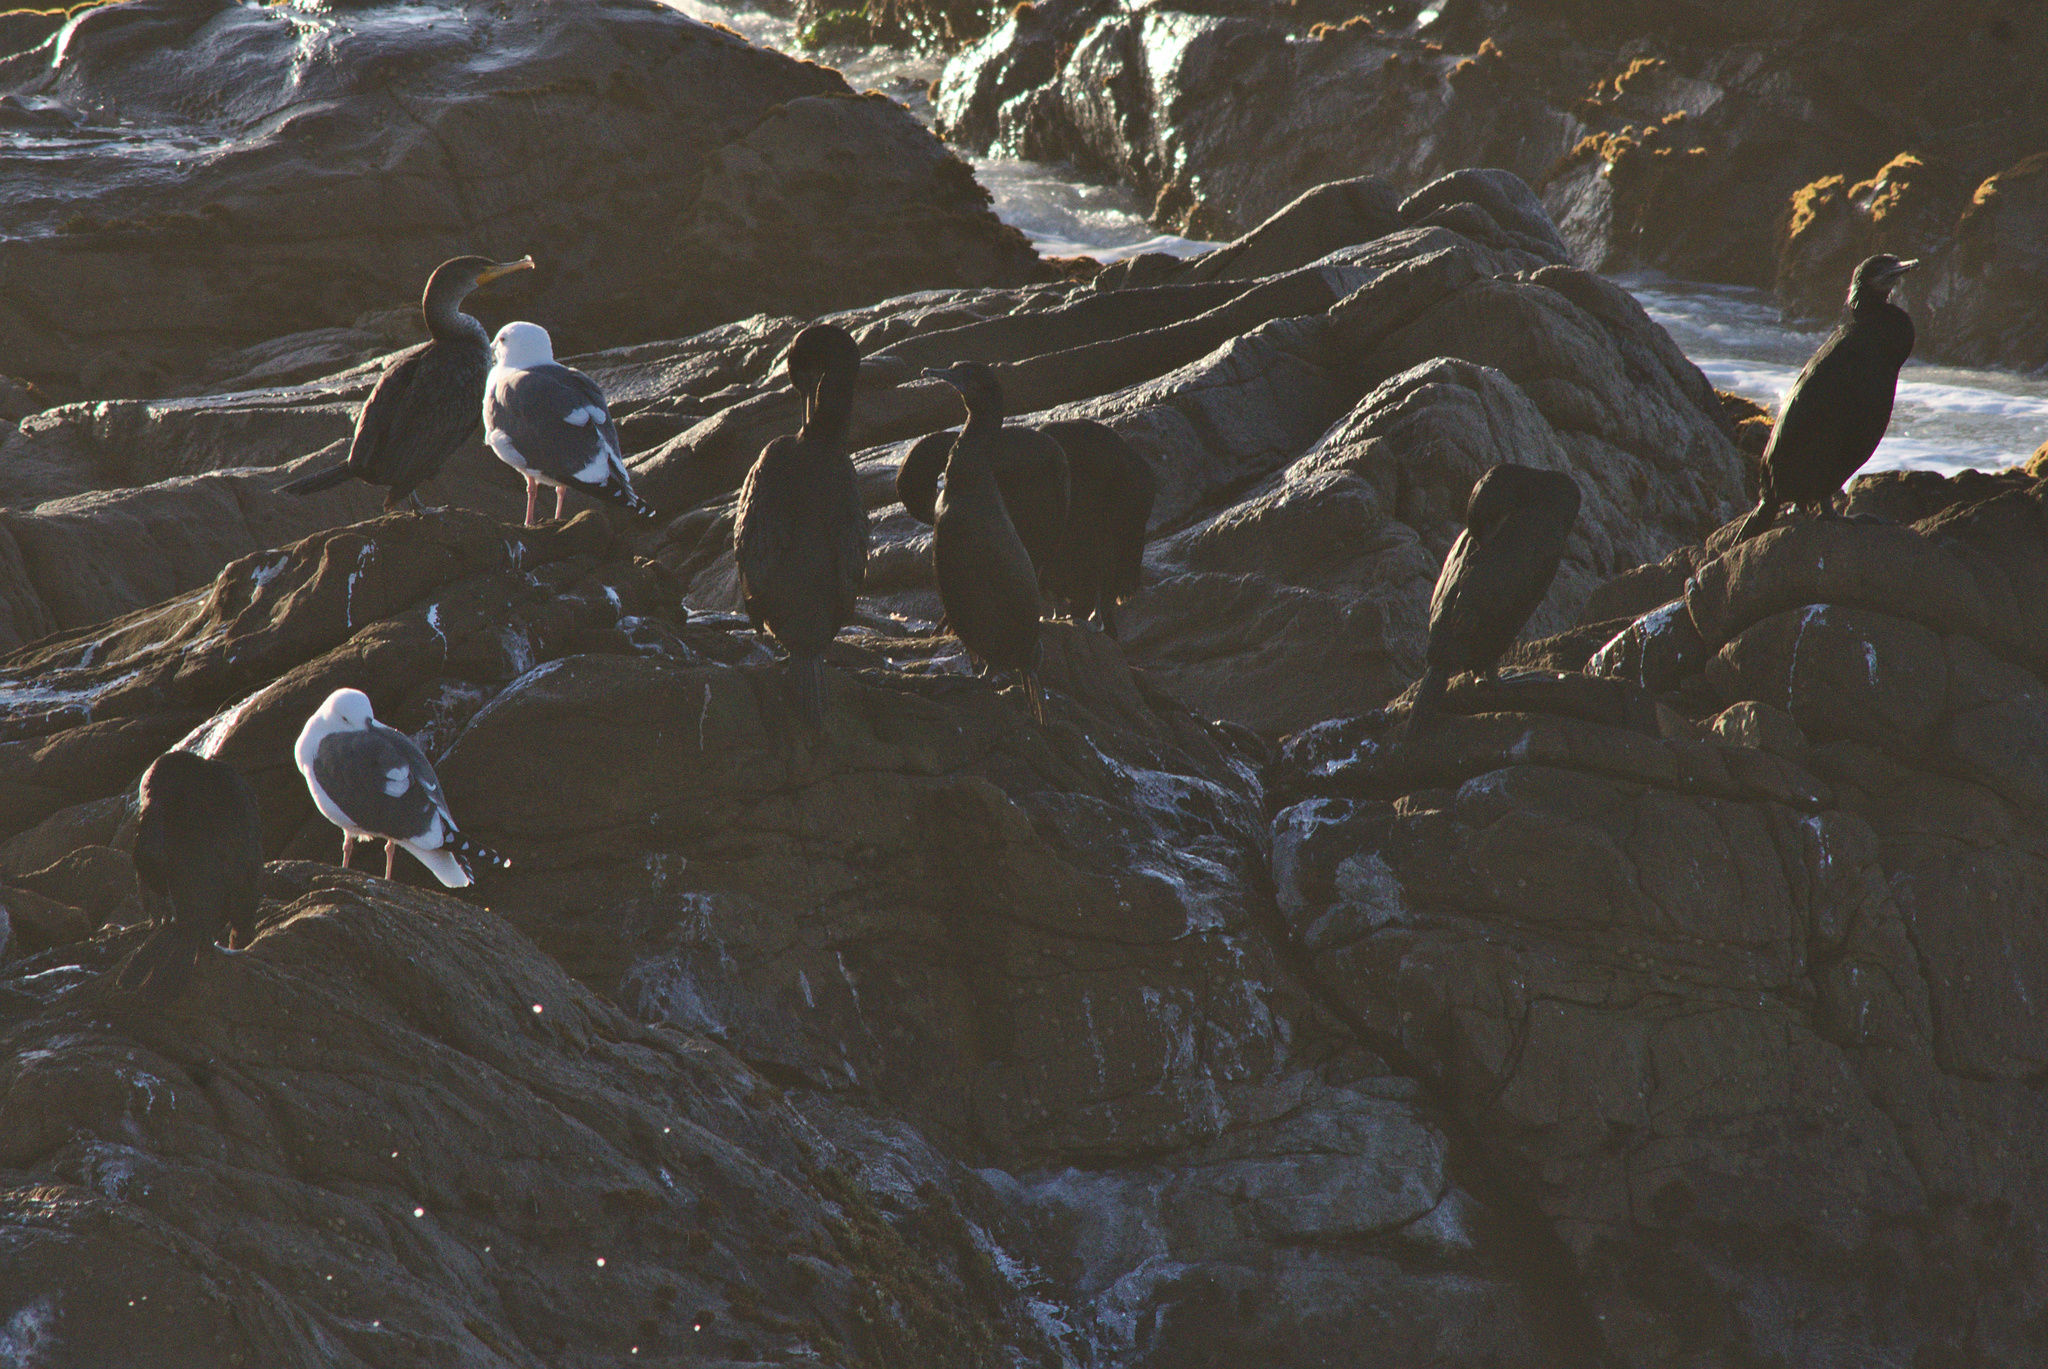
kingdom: Animalia
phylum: Chordata
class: Aves
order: Suliformes
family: Phalacrocoracidae
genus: Phalacrocorax
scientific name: Phalacrocorax auritus
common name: Double-crested cormorant
